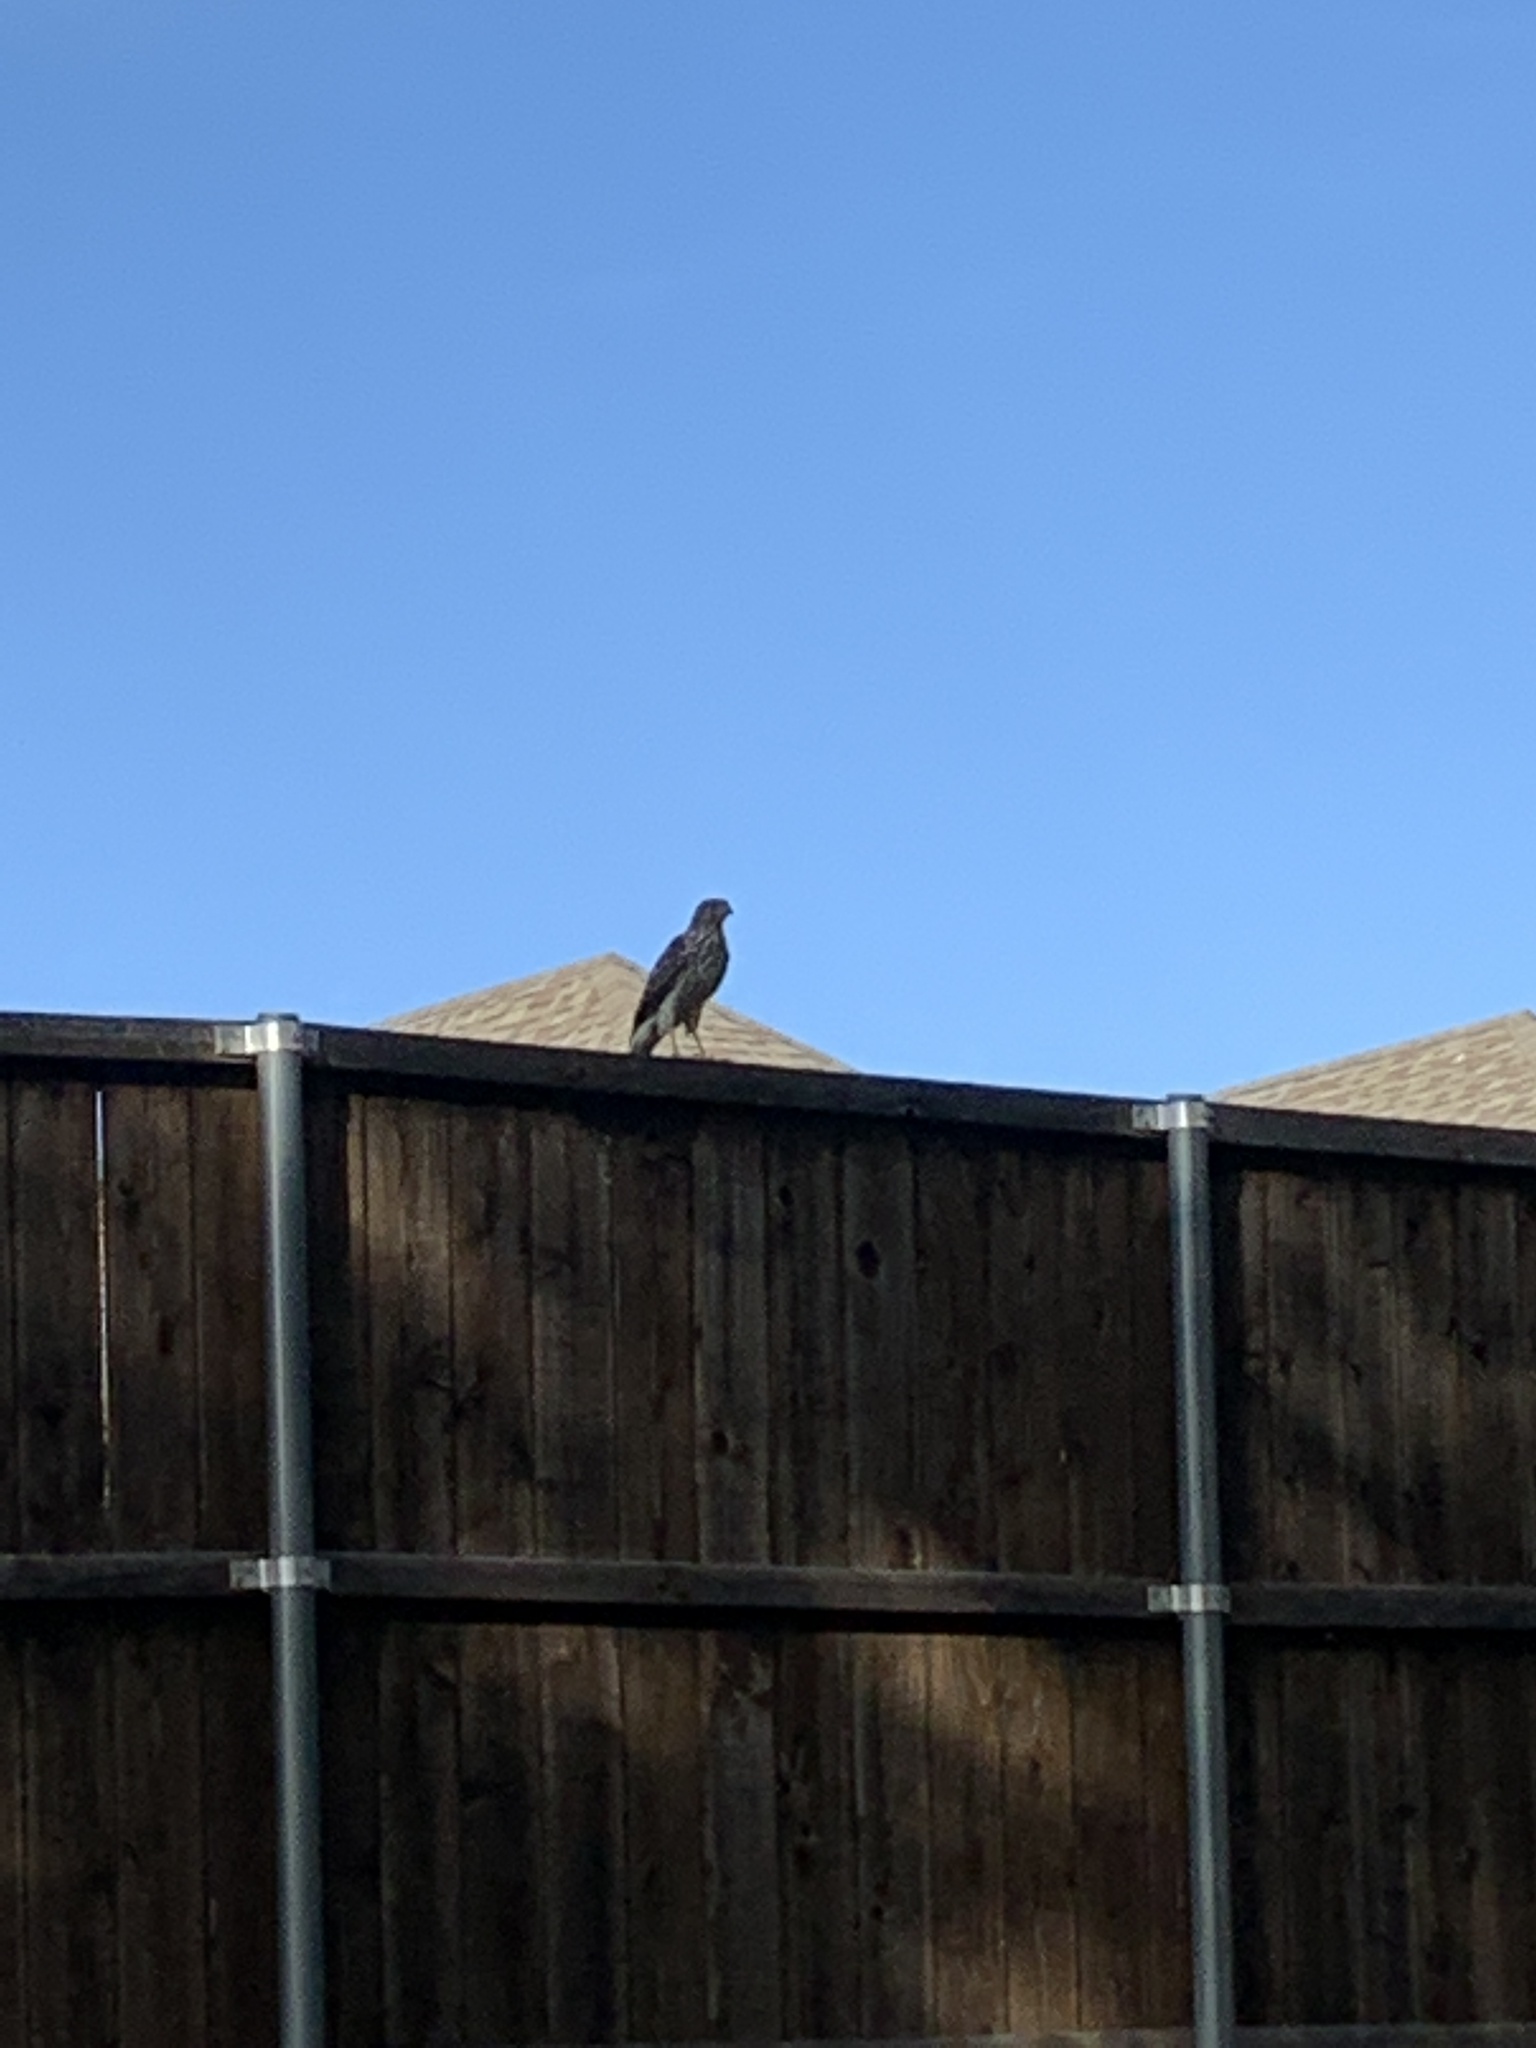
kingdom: Animalia
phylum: Chordata
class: Aves
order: Accipitriformes
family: Accipitridae
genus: Accipiter
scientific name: Accipiter cooperii
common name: Cooper's hawk
